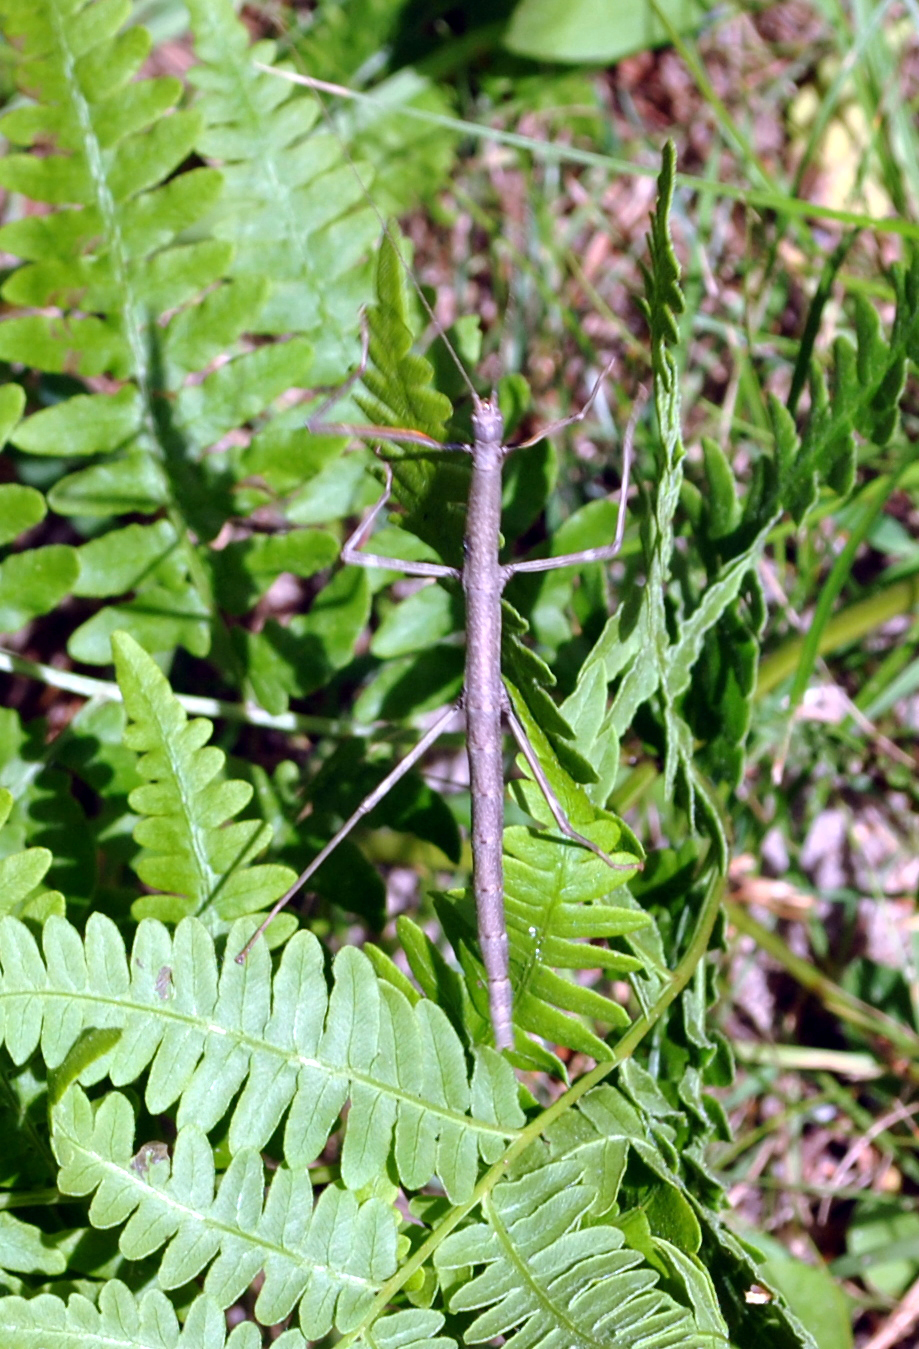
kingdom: Animalia
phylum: Arthropoda
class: Insecta
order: Phasmida
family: Diapheromeridae
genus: Diapheromera
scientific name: Diapheromera femorata
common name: Common american walkingstick
